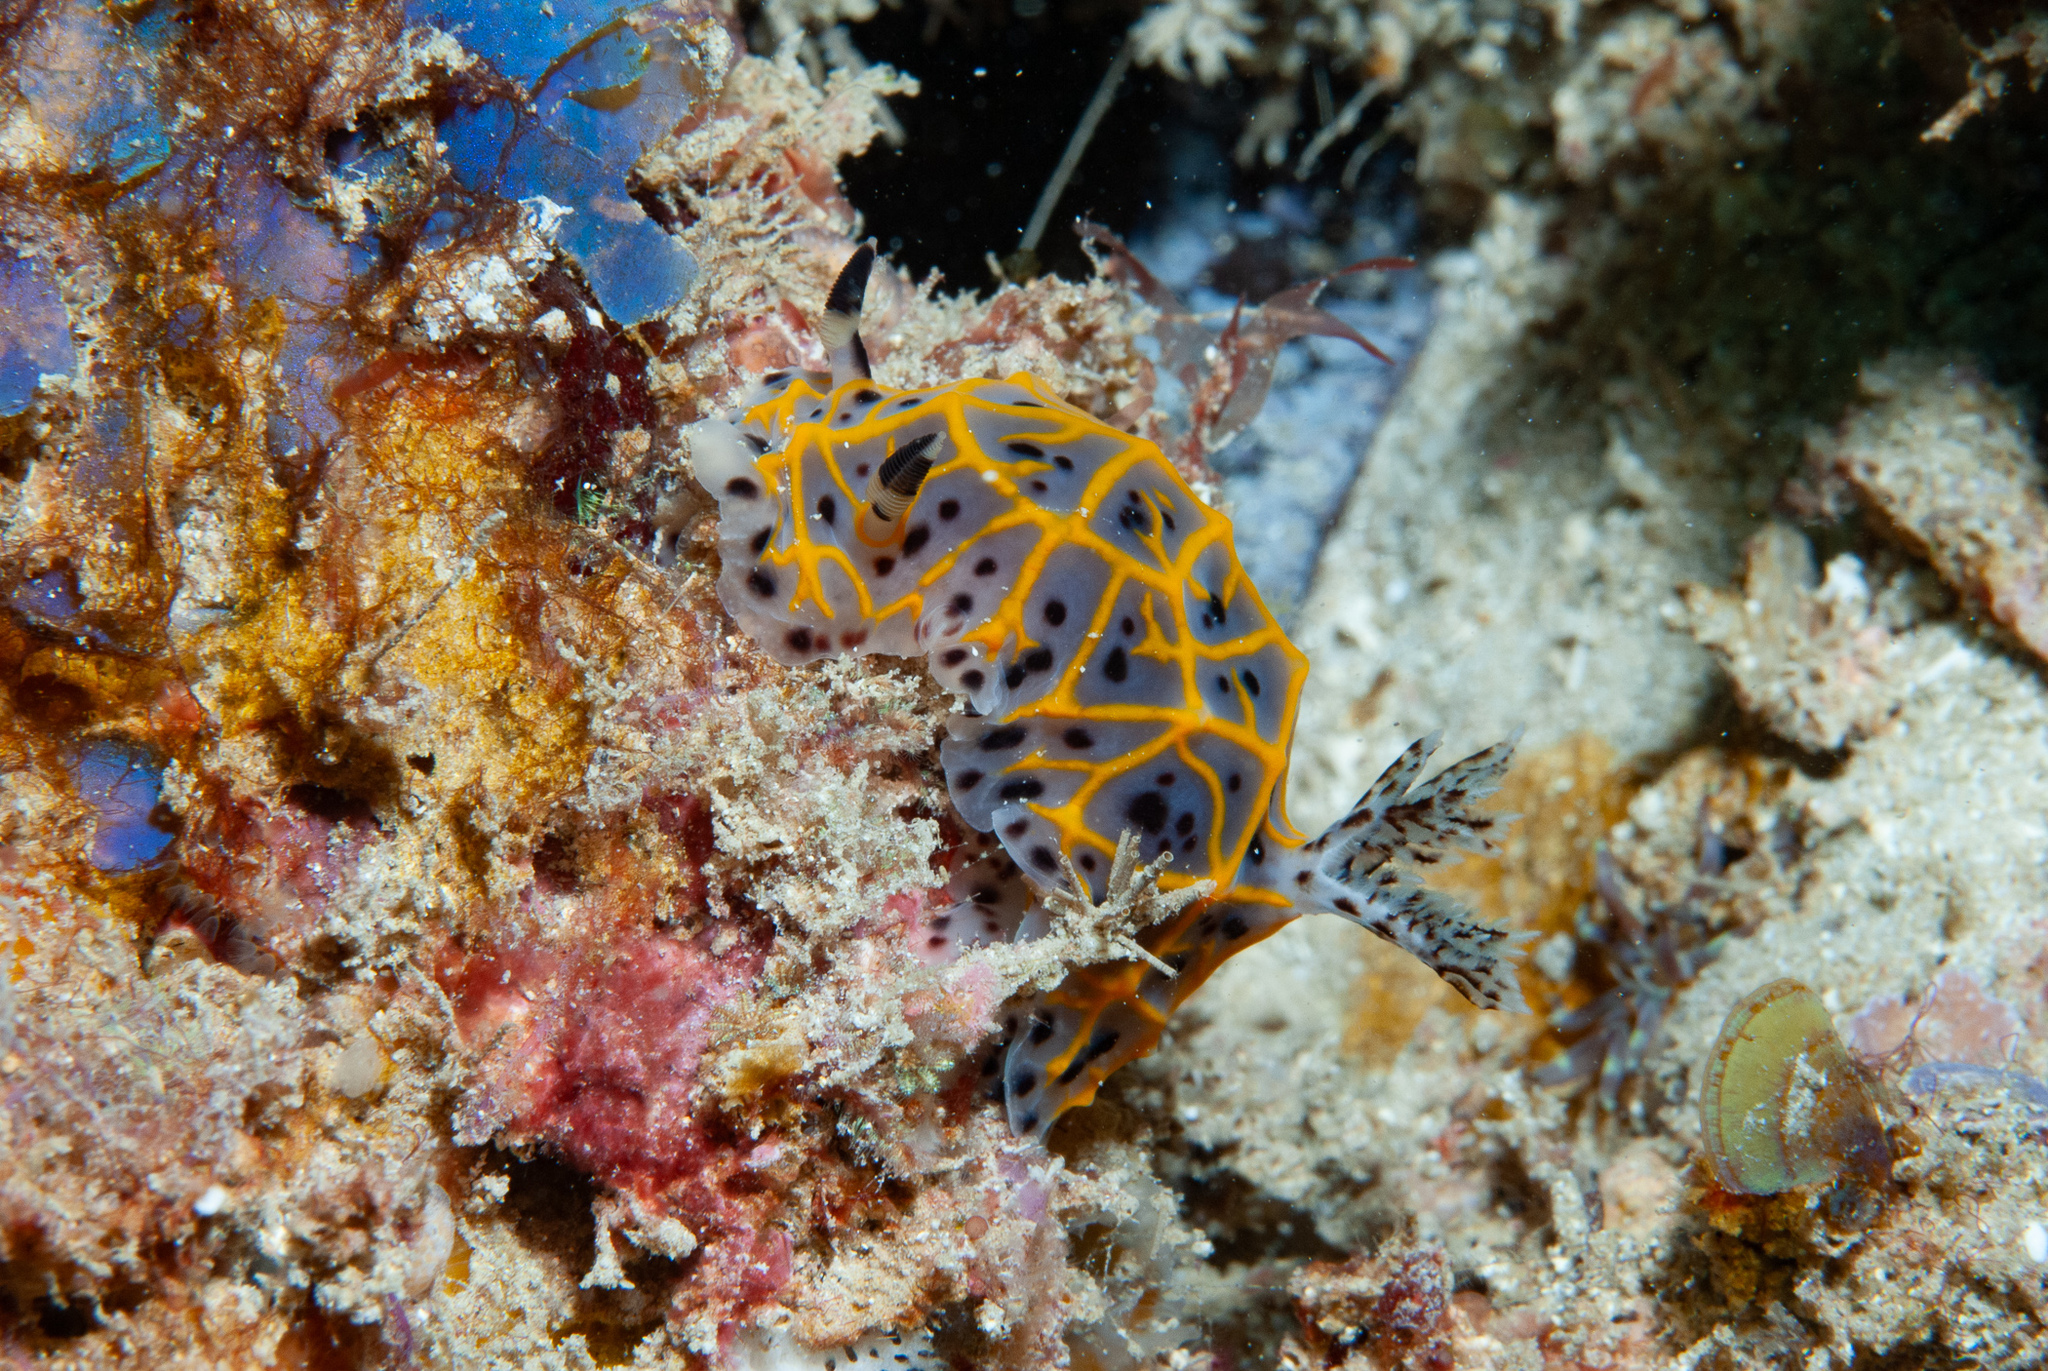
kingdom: Animalia
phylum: Mollusca
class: Gastropoda
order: Nudibranchia
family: Discodorididae
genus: Halgerda
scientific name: Halgerda wasinensis
